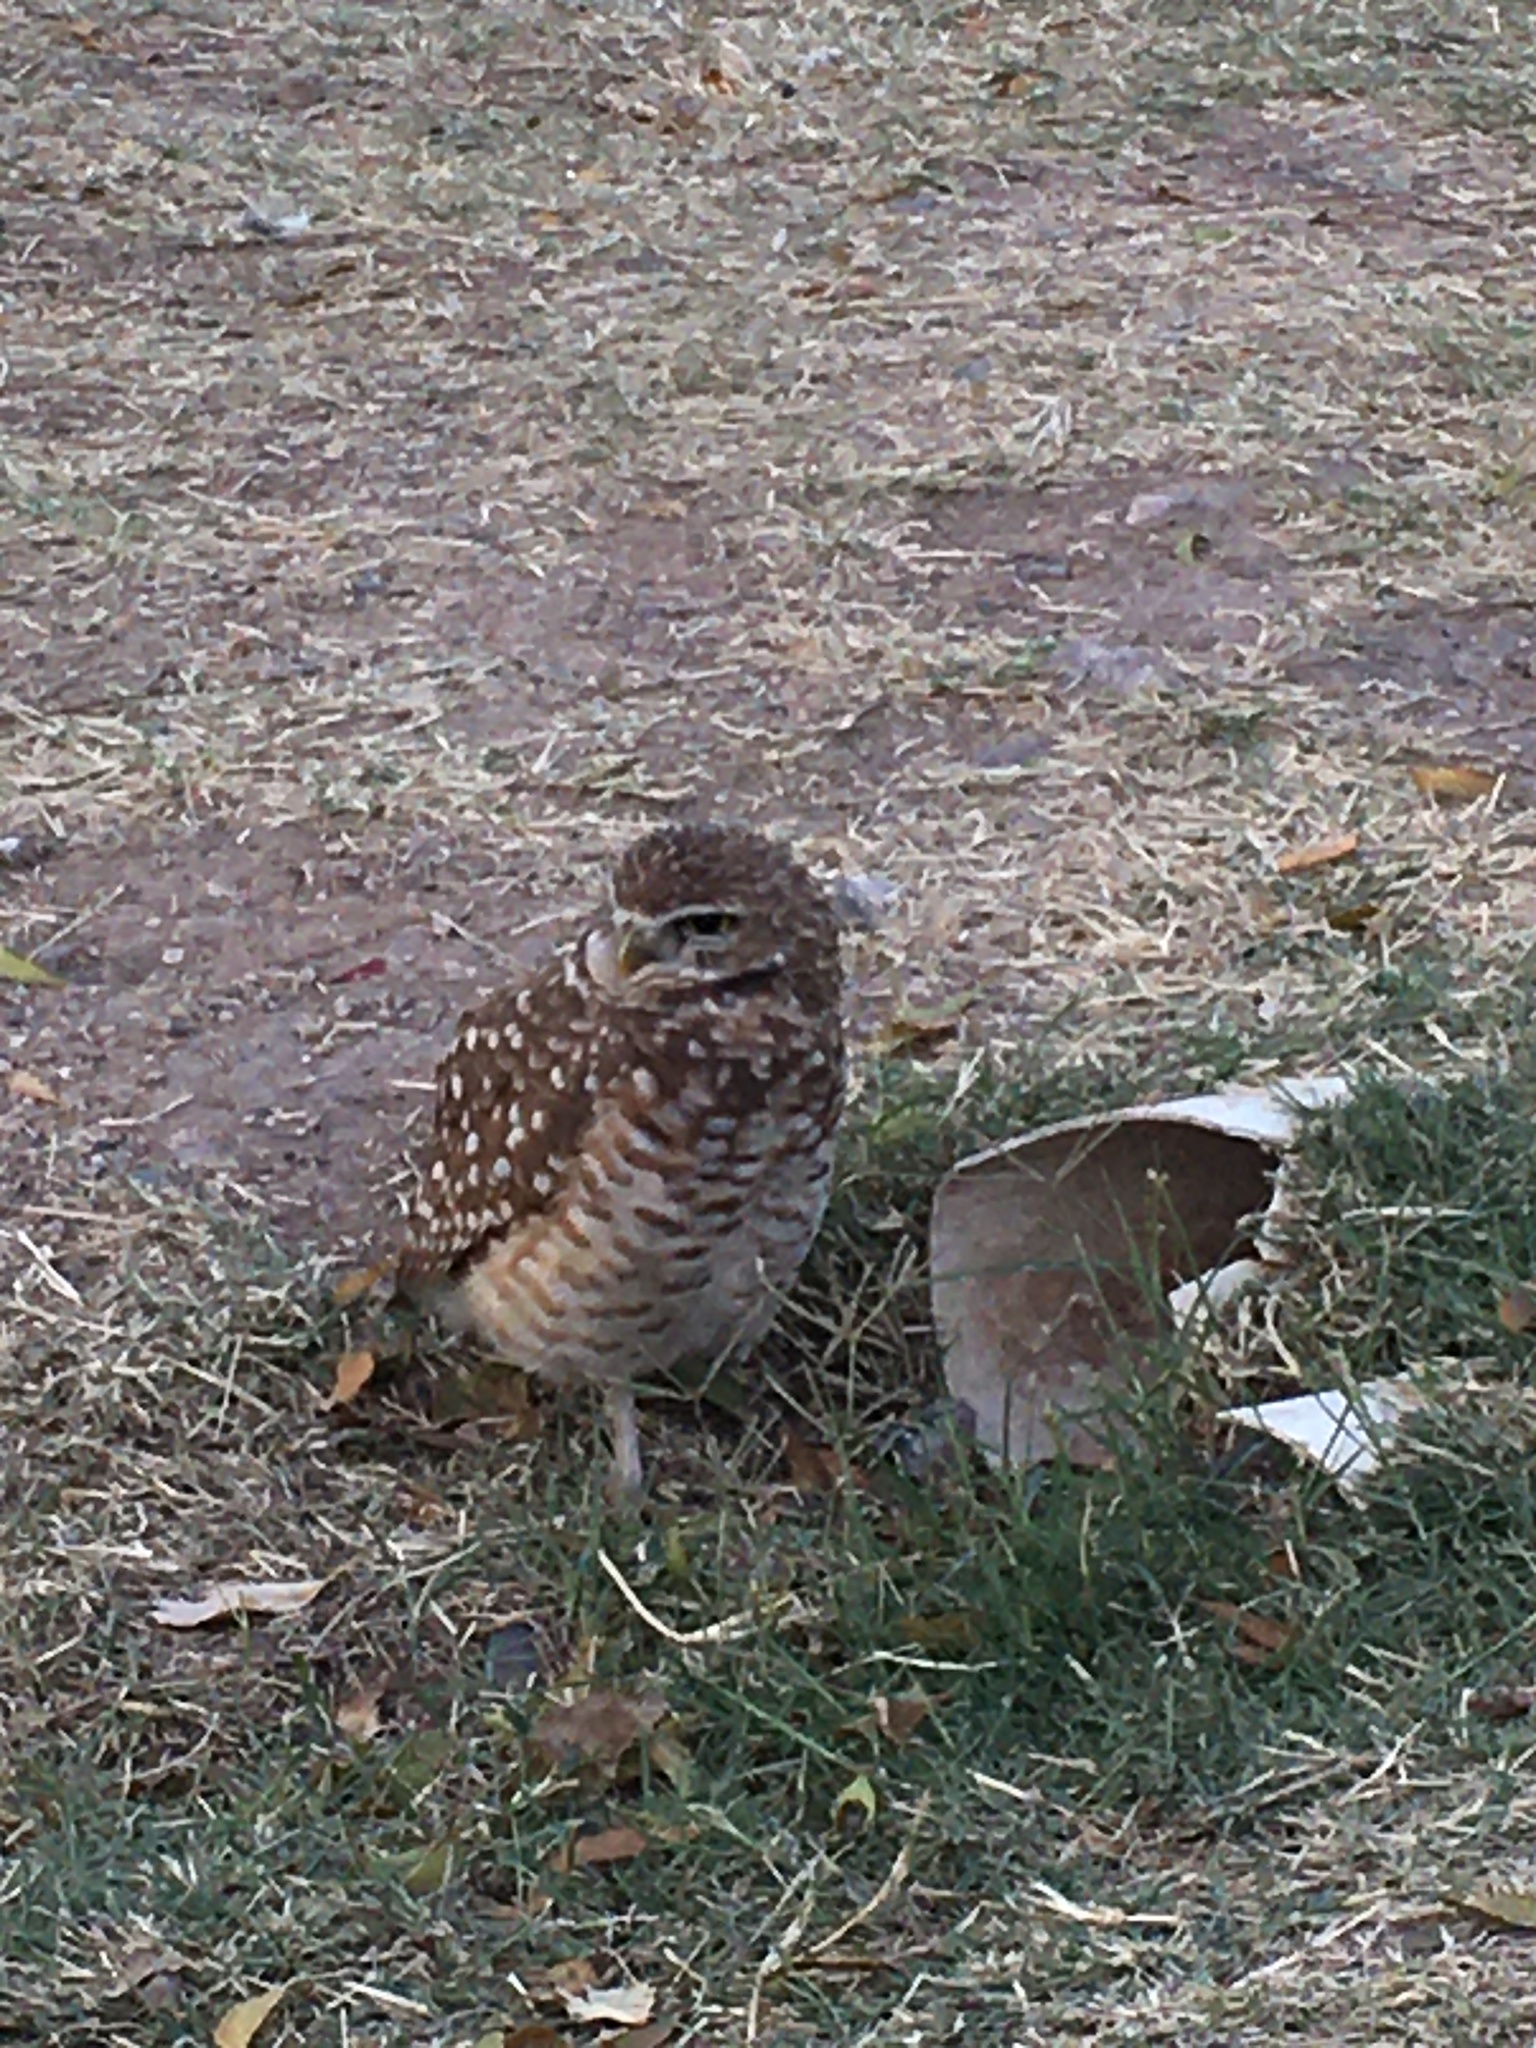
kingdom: Animalia
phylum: Chordata
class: Aves
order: Strigiformes
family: Strigidae
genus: Athene
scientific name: Athene cunicularia
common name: Burrowing owl
